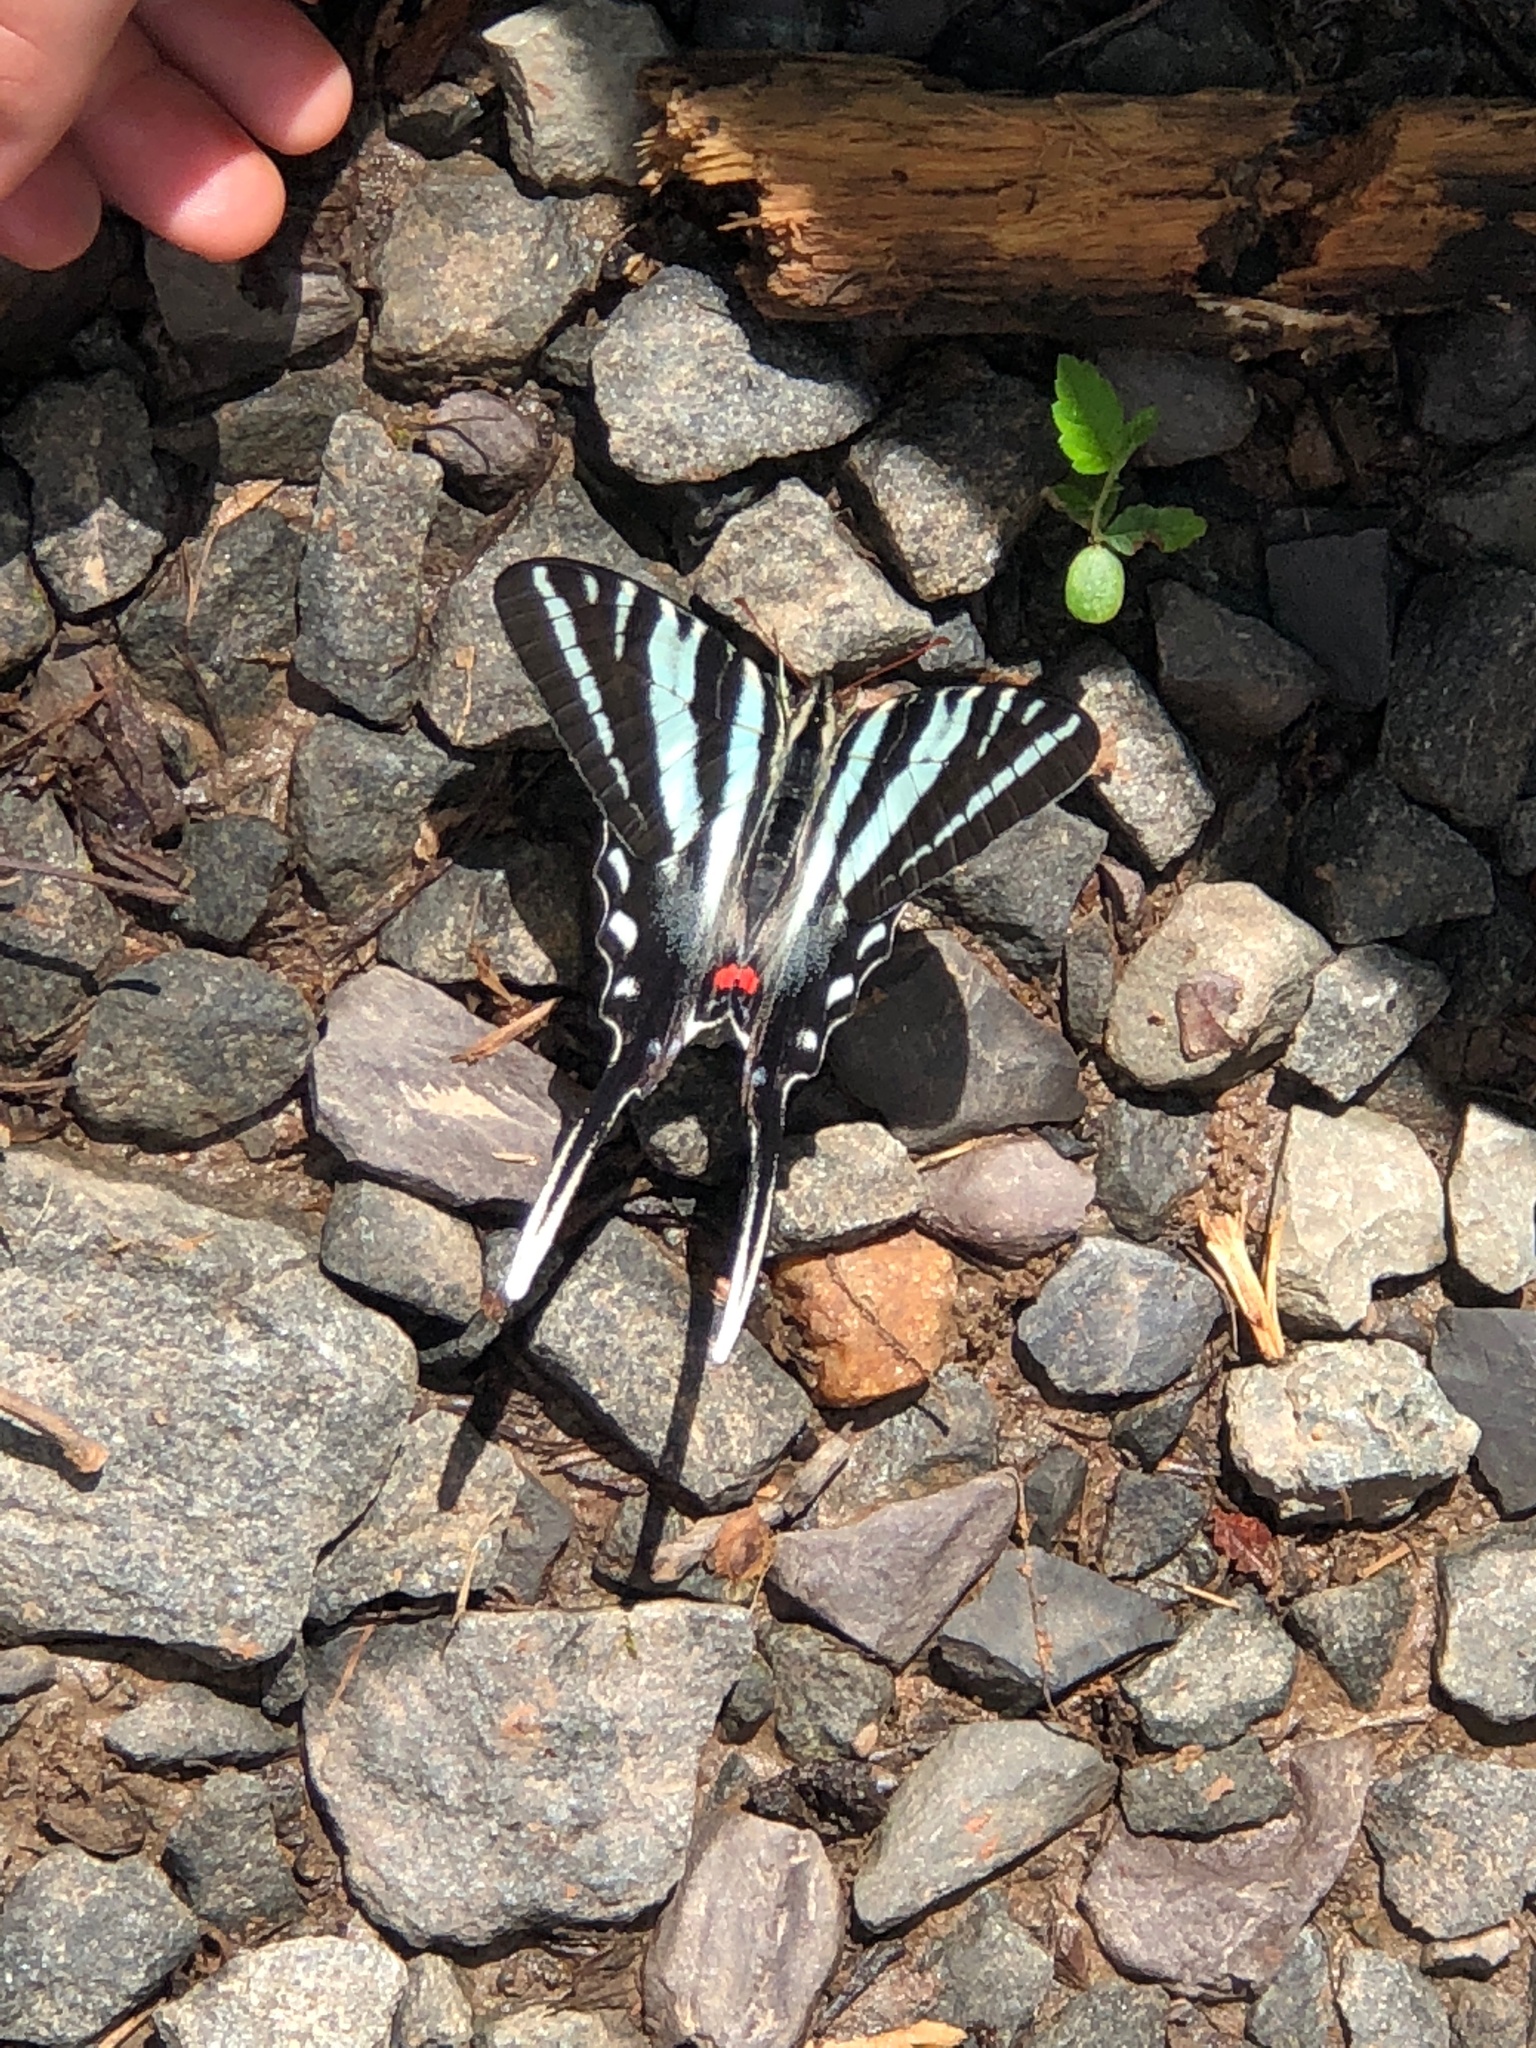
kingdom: Animalia
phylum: Arthropoda
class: Insecta
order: Lepidoptera
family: Papilionidae
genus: Protographium
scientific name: Protographium marcellus
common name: Zebra swallowtail
